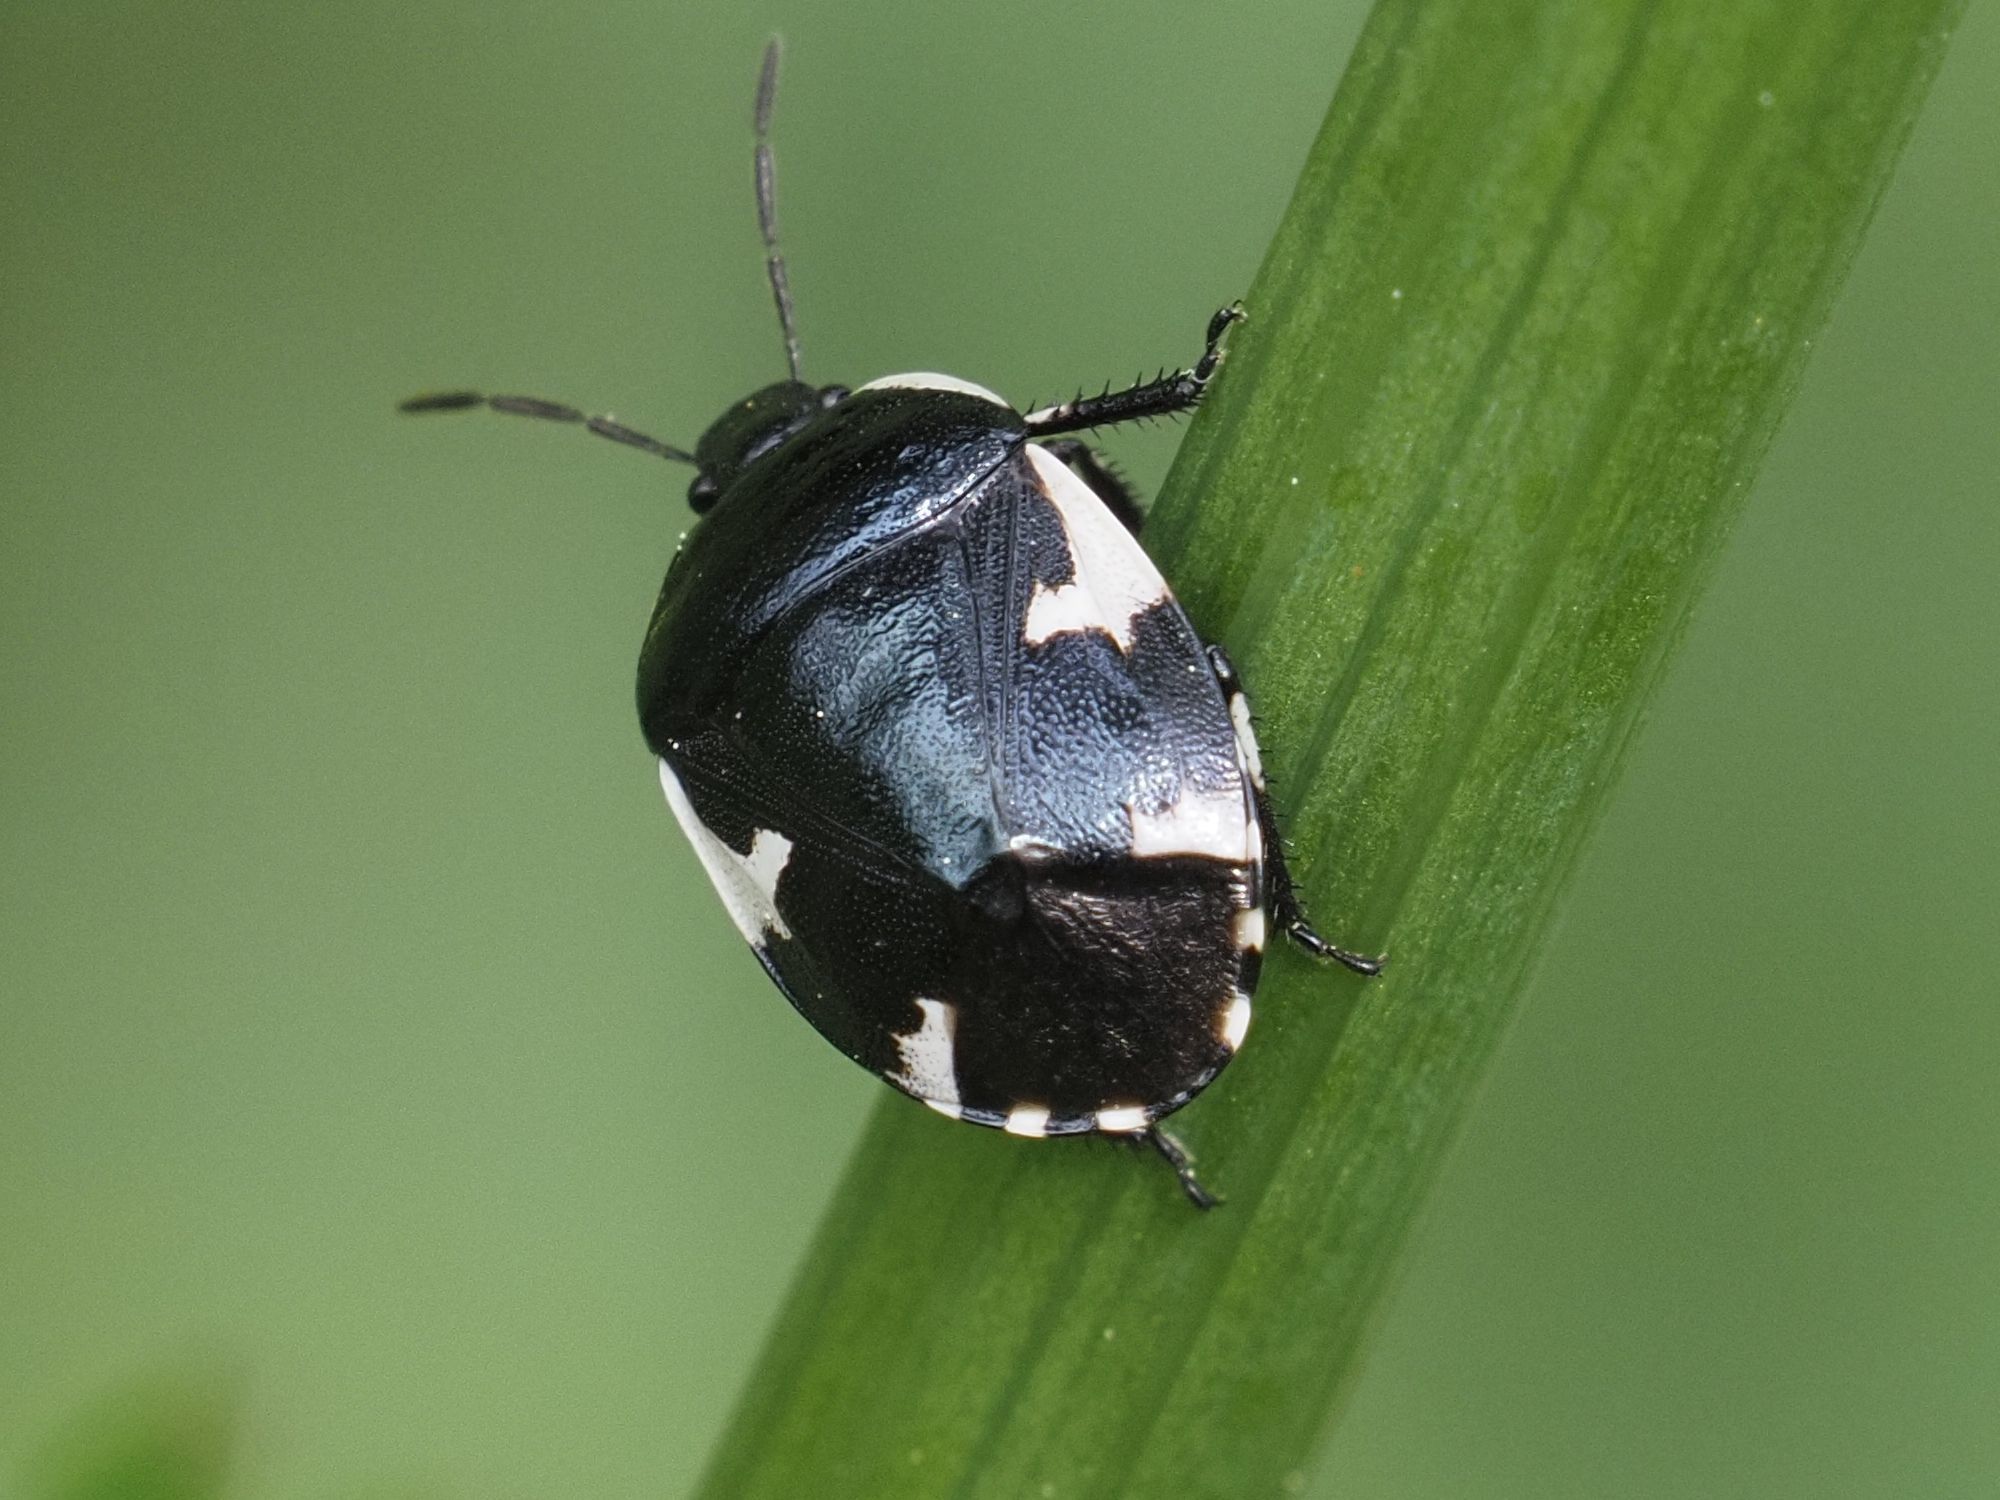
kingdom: Animalia
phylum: Arthropoda
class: Insecta
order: Hemiptera
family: Cydnidae
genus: Tritomegas
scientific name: Tritomegas sexmaculatus
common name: Rambur's pied shieldbug
